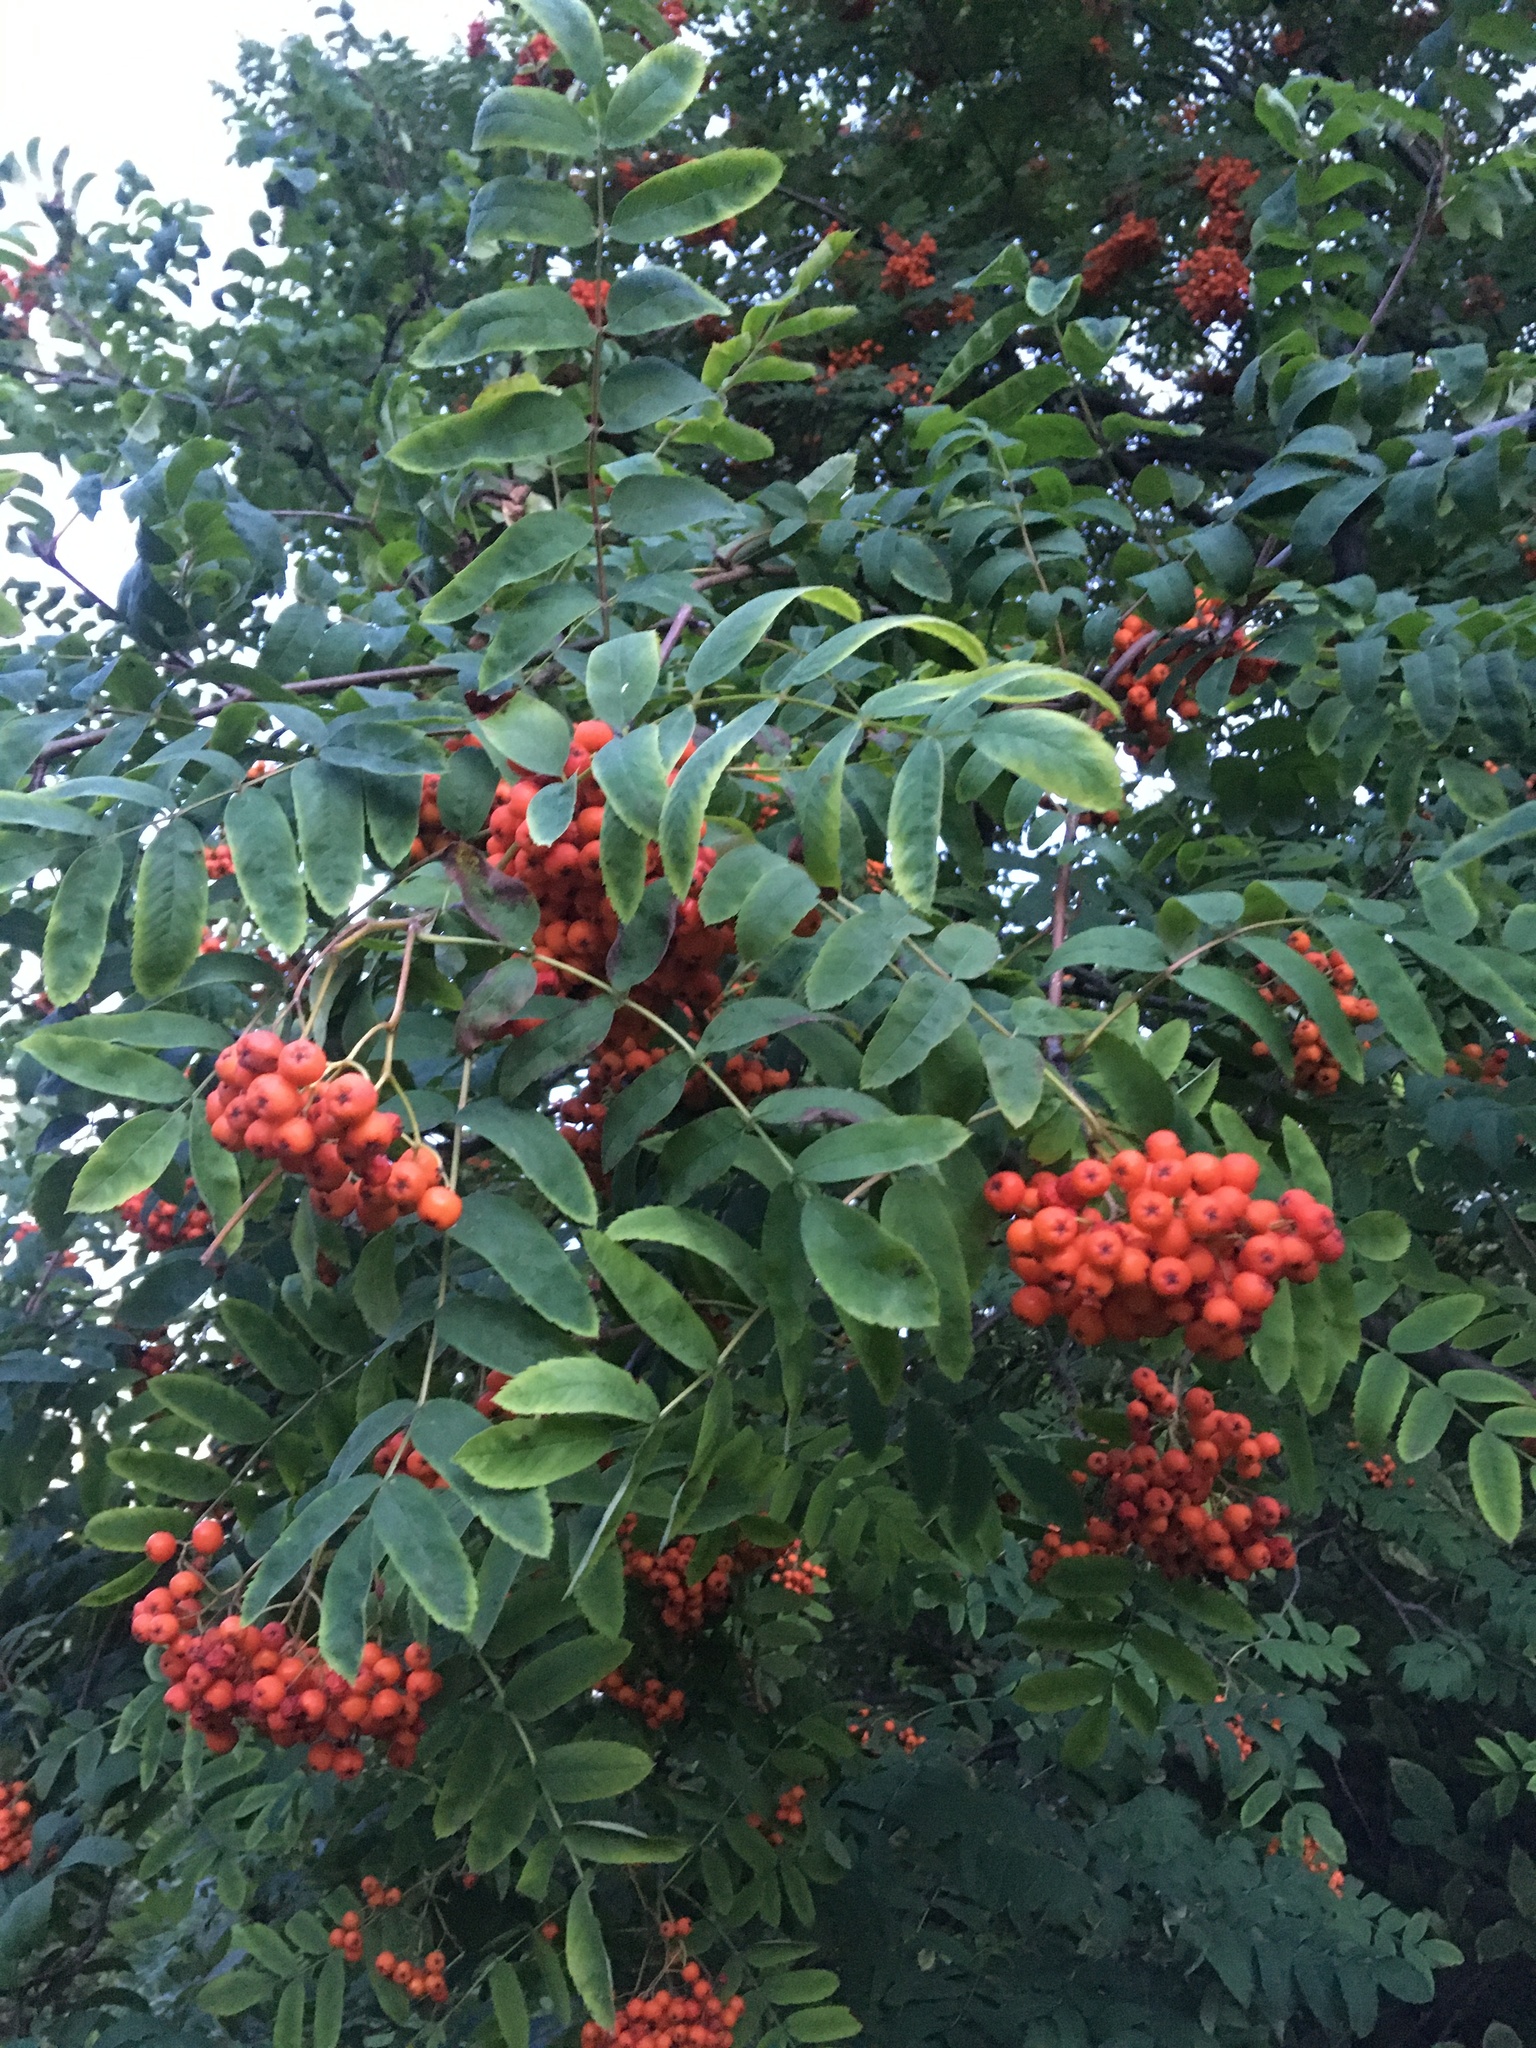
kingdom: Plantae
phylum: Tracheophyta
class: Magnoliopsida
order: Rosales
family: Rosaceae
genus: Sorbus
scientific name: Sorbus aucuparia
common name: Rowan
